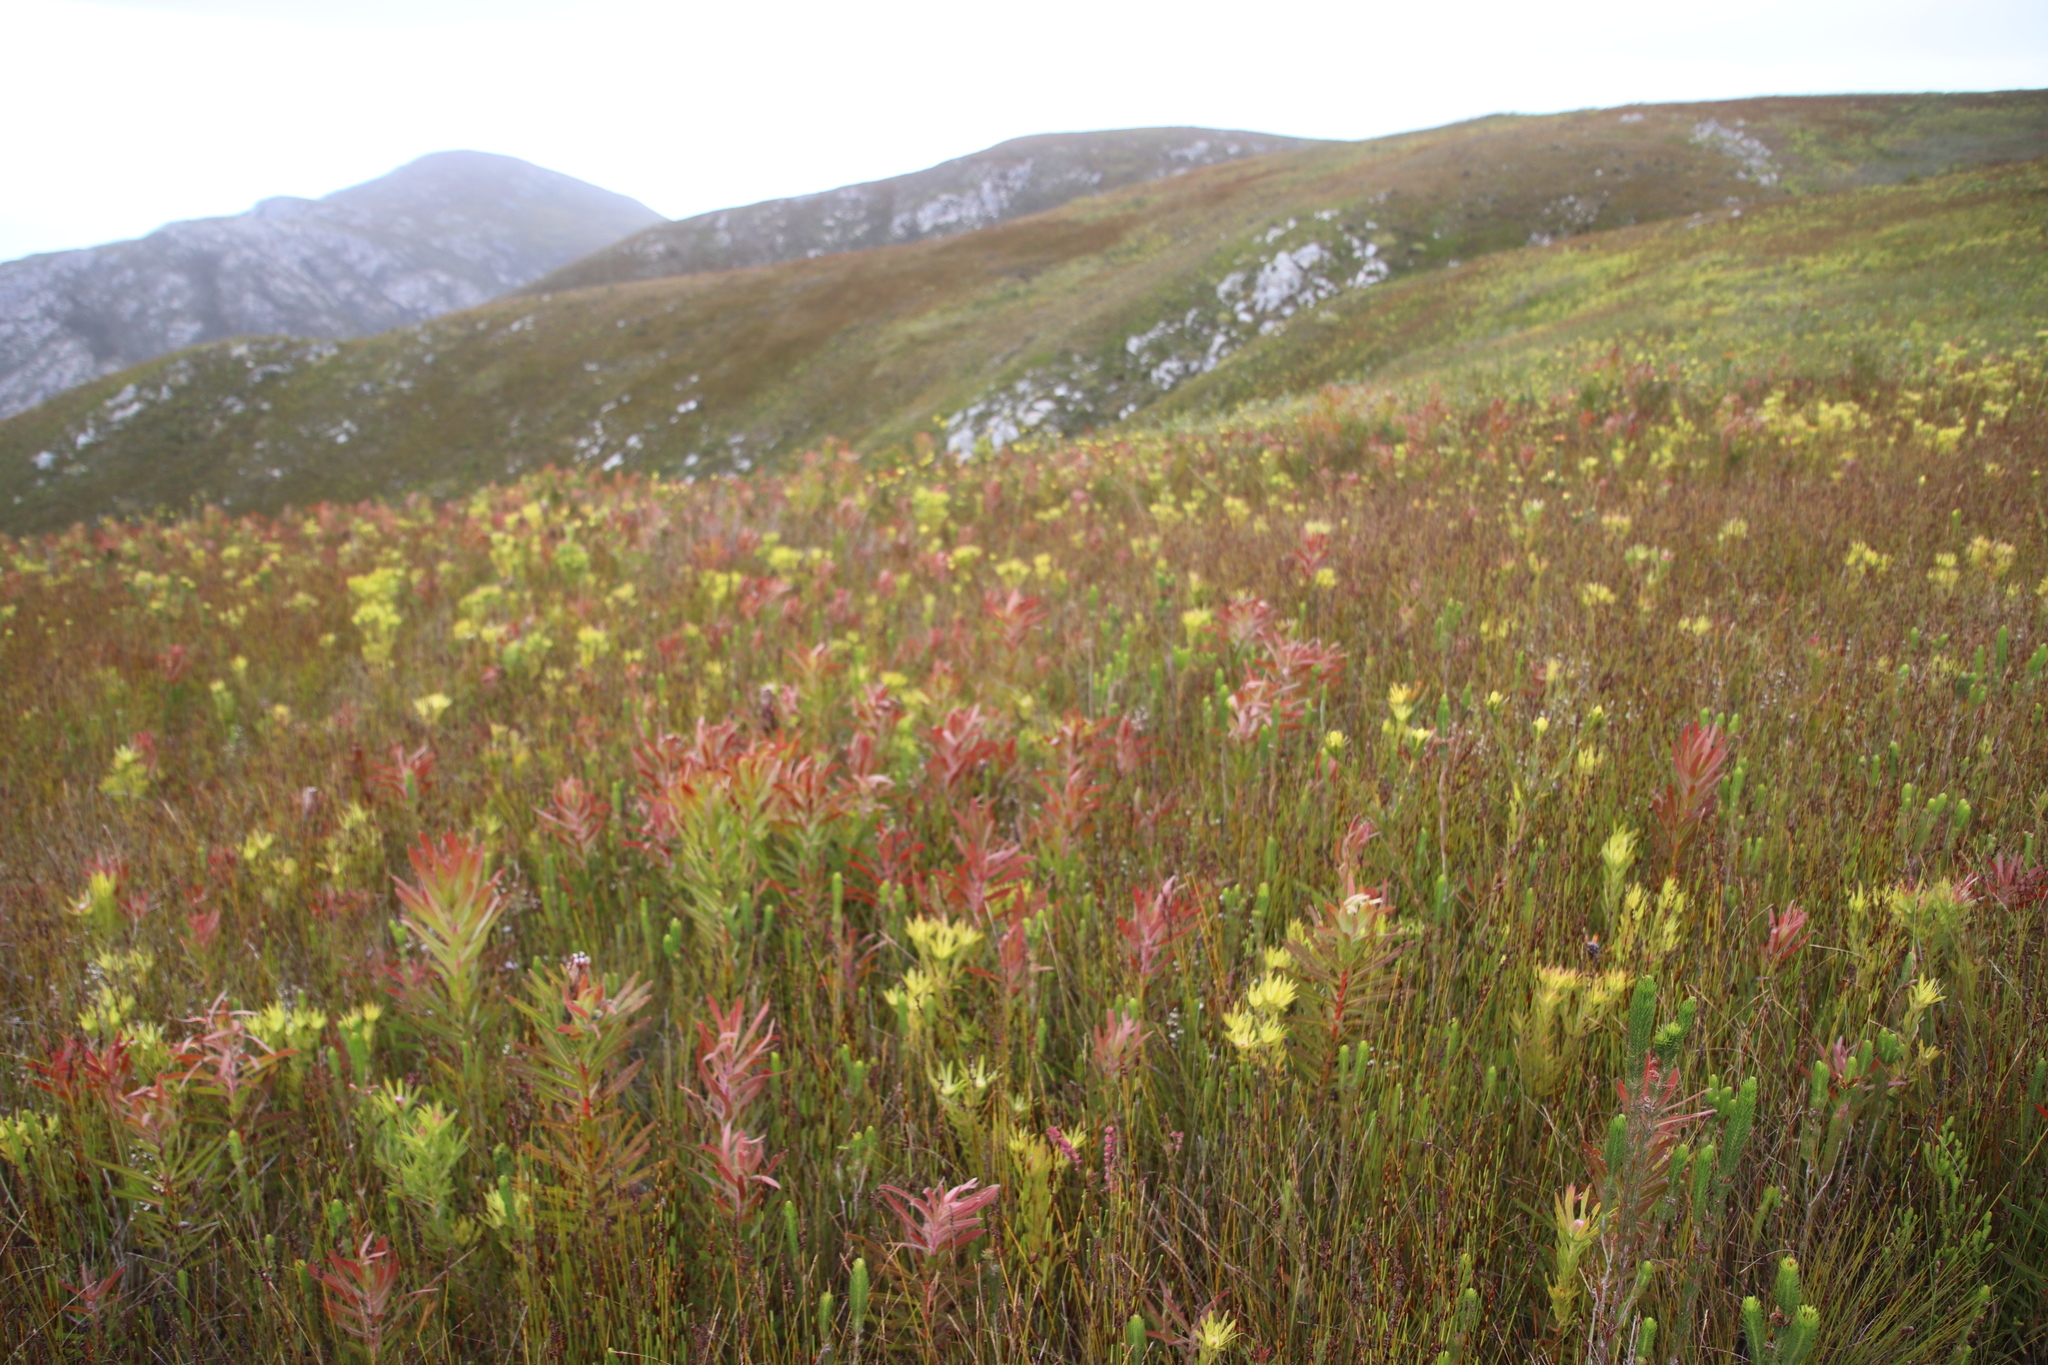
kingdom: Plantae
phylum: Tracheophyta
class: Magnoliopsida
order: Proteales
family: Proteaceae
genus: Protea
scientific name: Protea lepidocarpodendron
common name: Black-bearded protea
